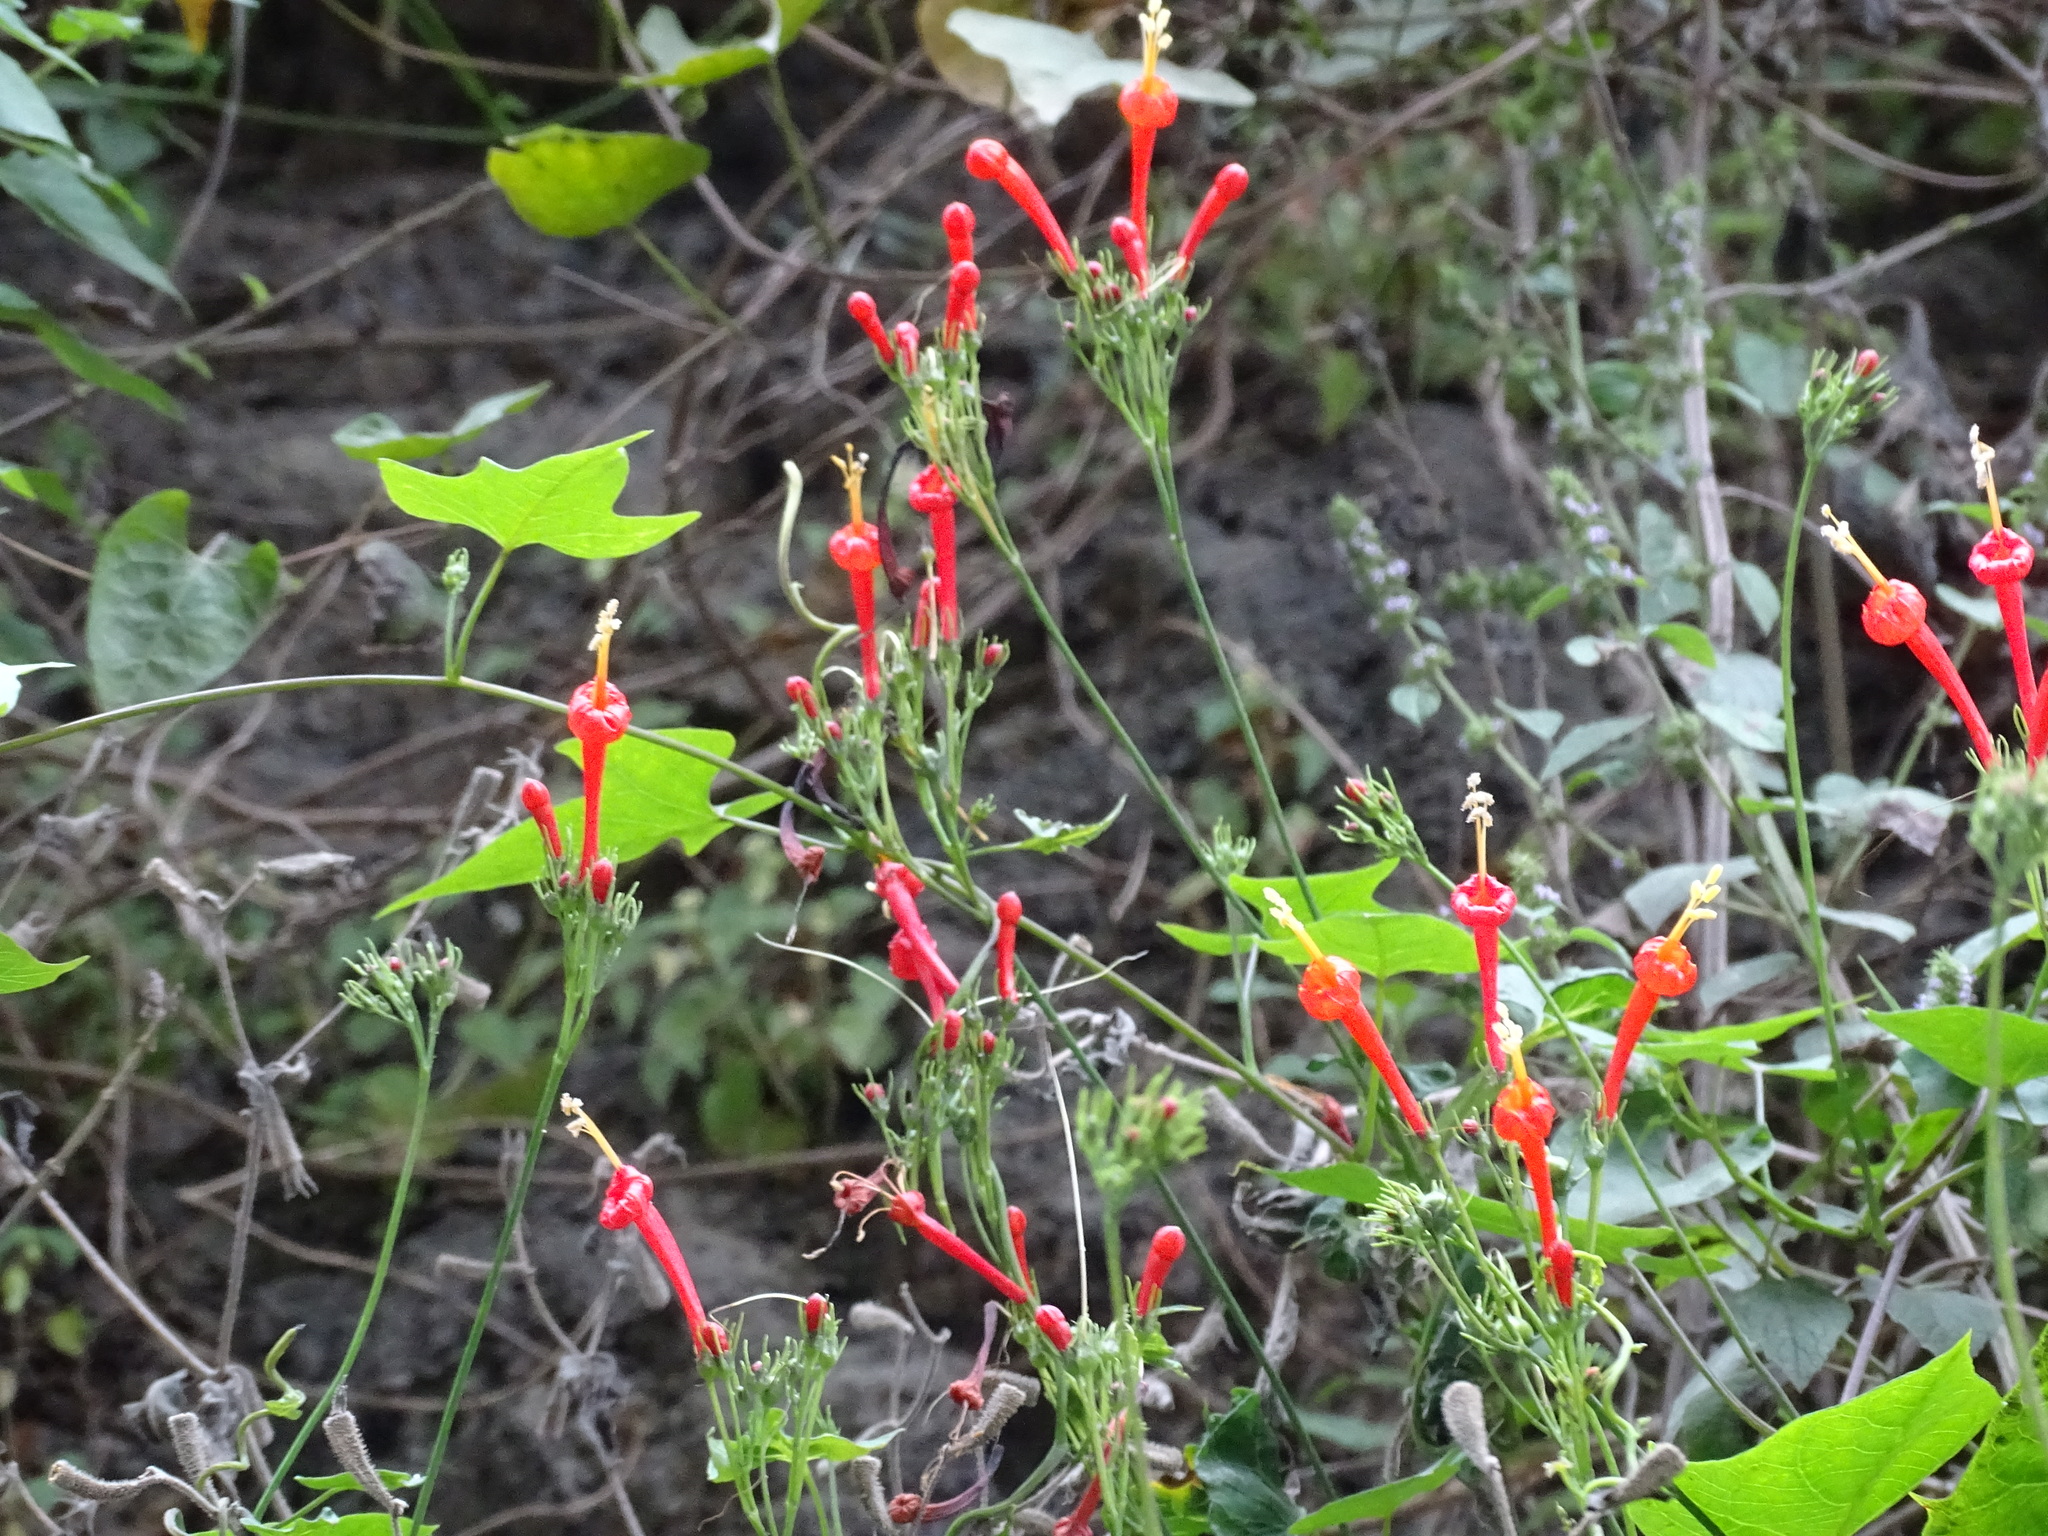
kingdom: Plantae
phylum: Tracheophyta
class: Magnoliopsida
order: Solanales
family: Convolvulaceae
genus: Ipomoea
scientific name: Ipomoea hastigera
